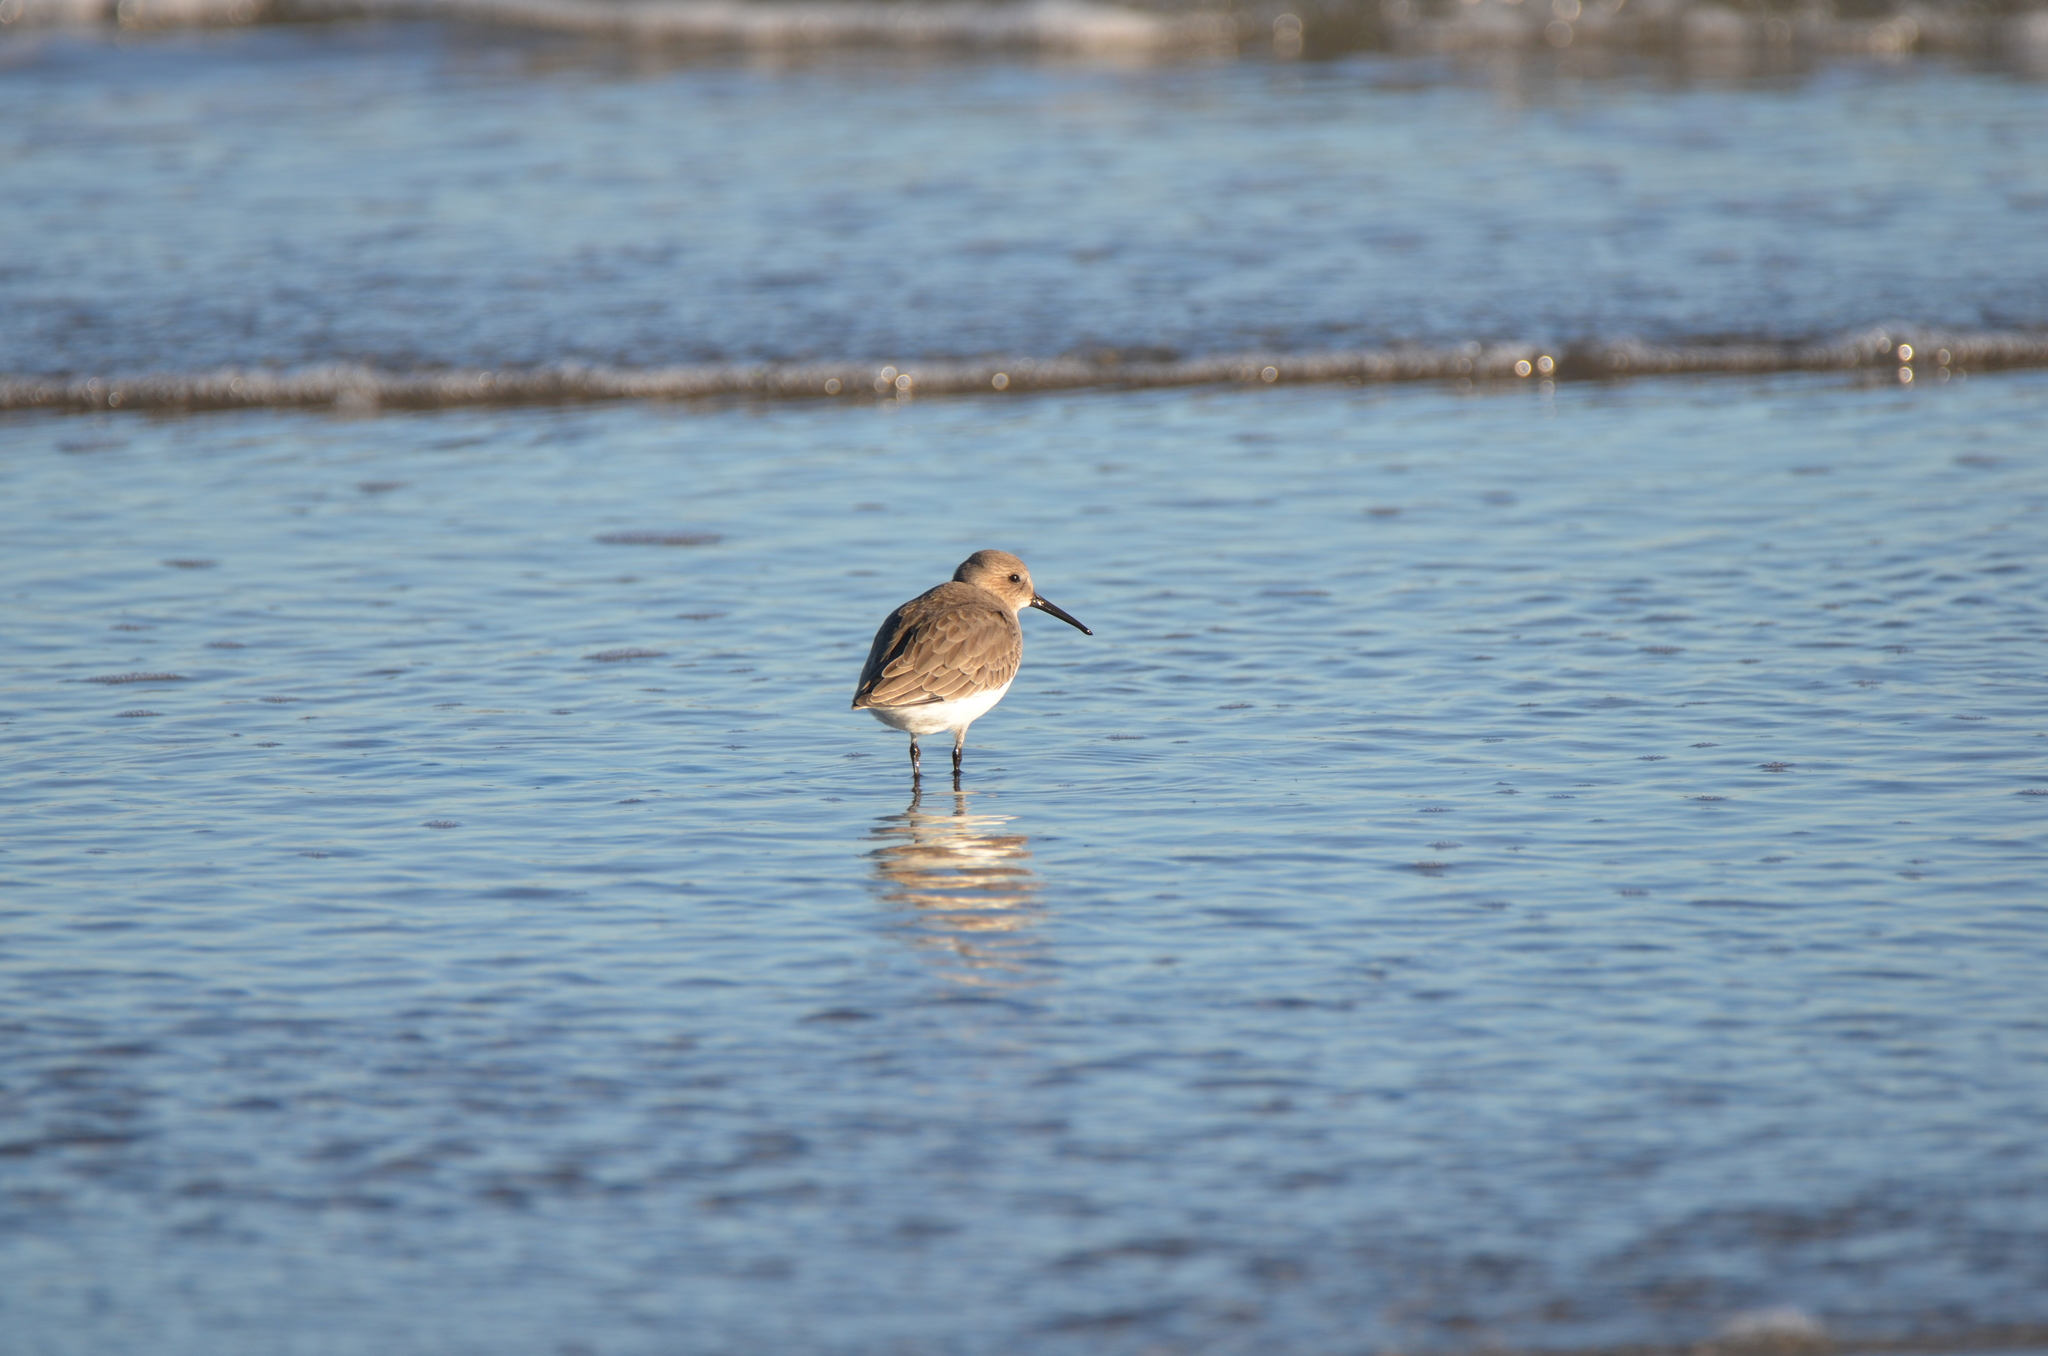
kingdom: Animalia
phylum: Chordata
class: Aves
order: Charadriiformes
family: Scolopacidae
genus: Calidris
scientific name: Calidris alpina
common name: Dunlin
